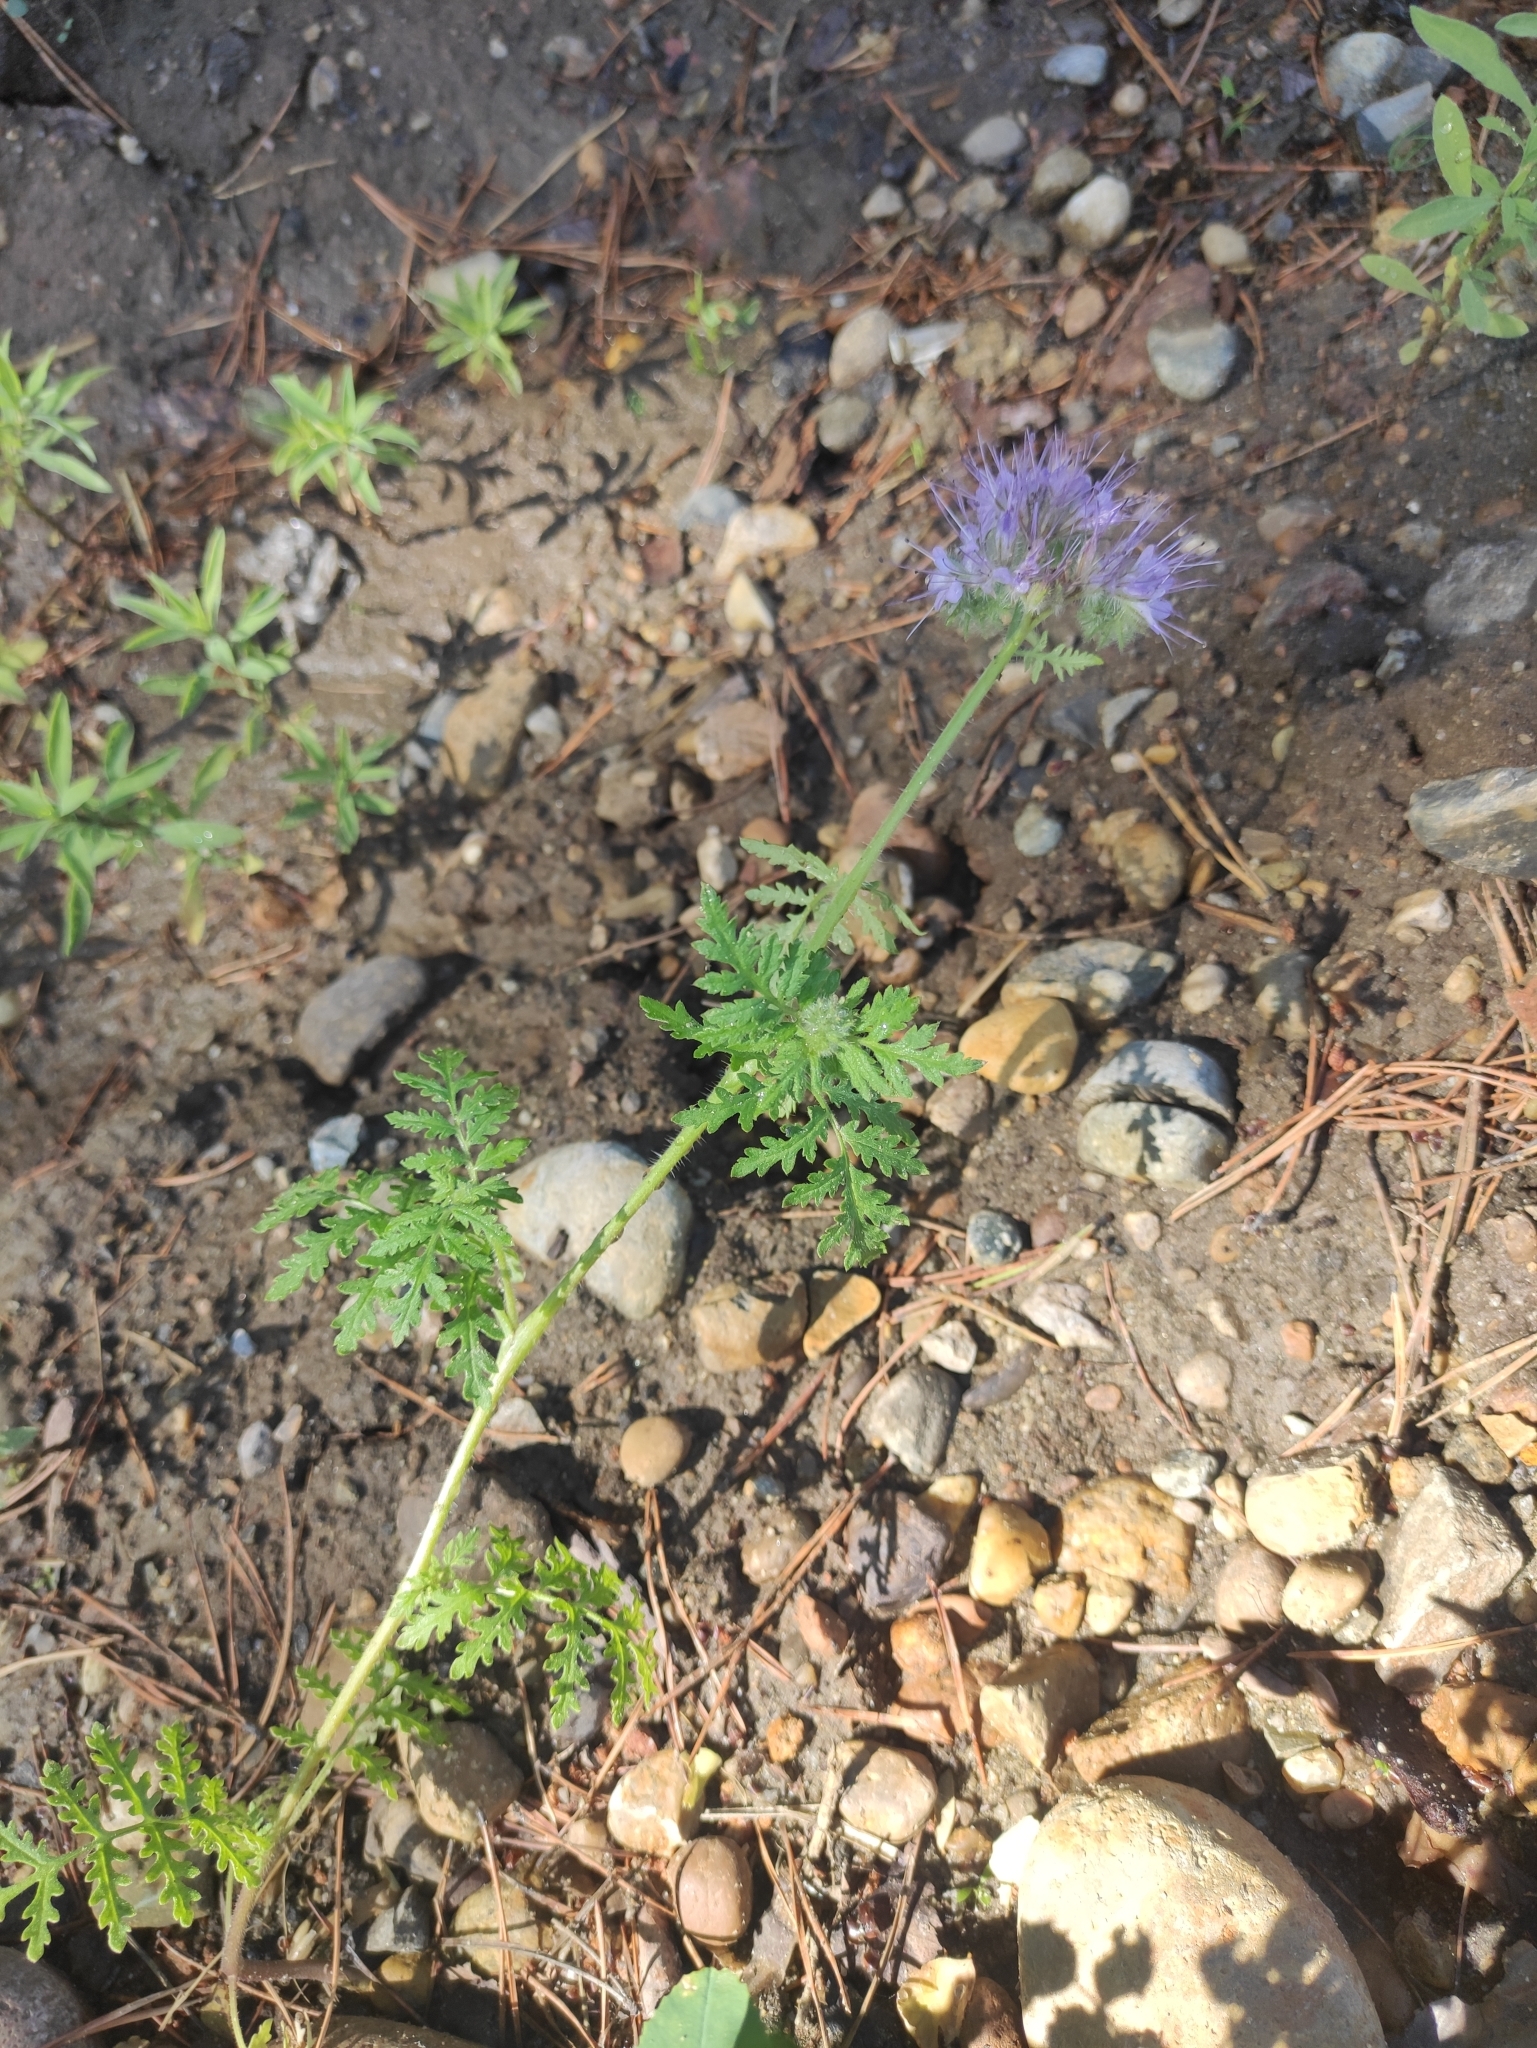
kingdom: Plantae
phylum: Tracheophyta
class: Magnoliopsida
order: Boraginales
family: Hydrophyllaceae
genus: Phacelia
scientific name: Phacelia tanacetifolia
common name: Phacelia
